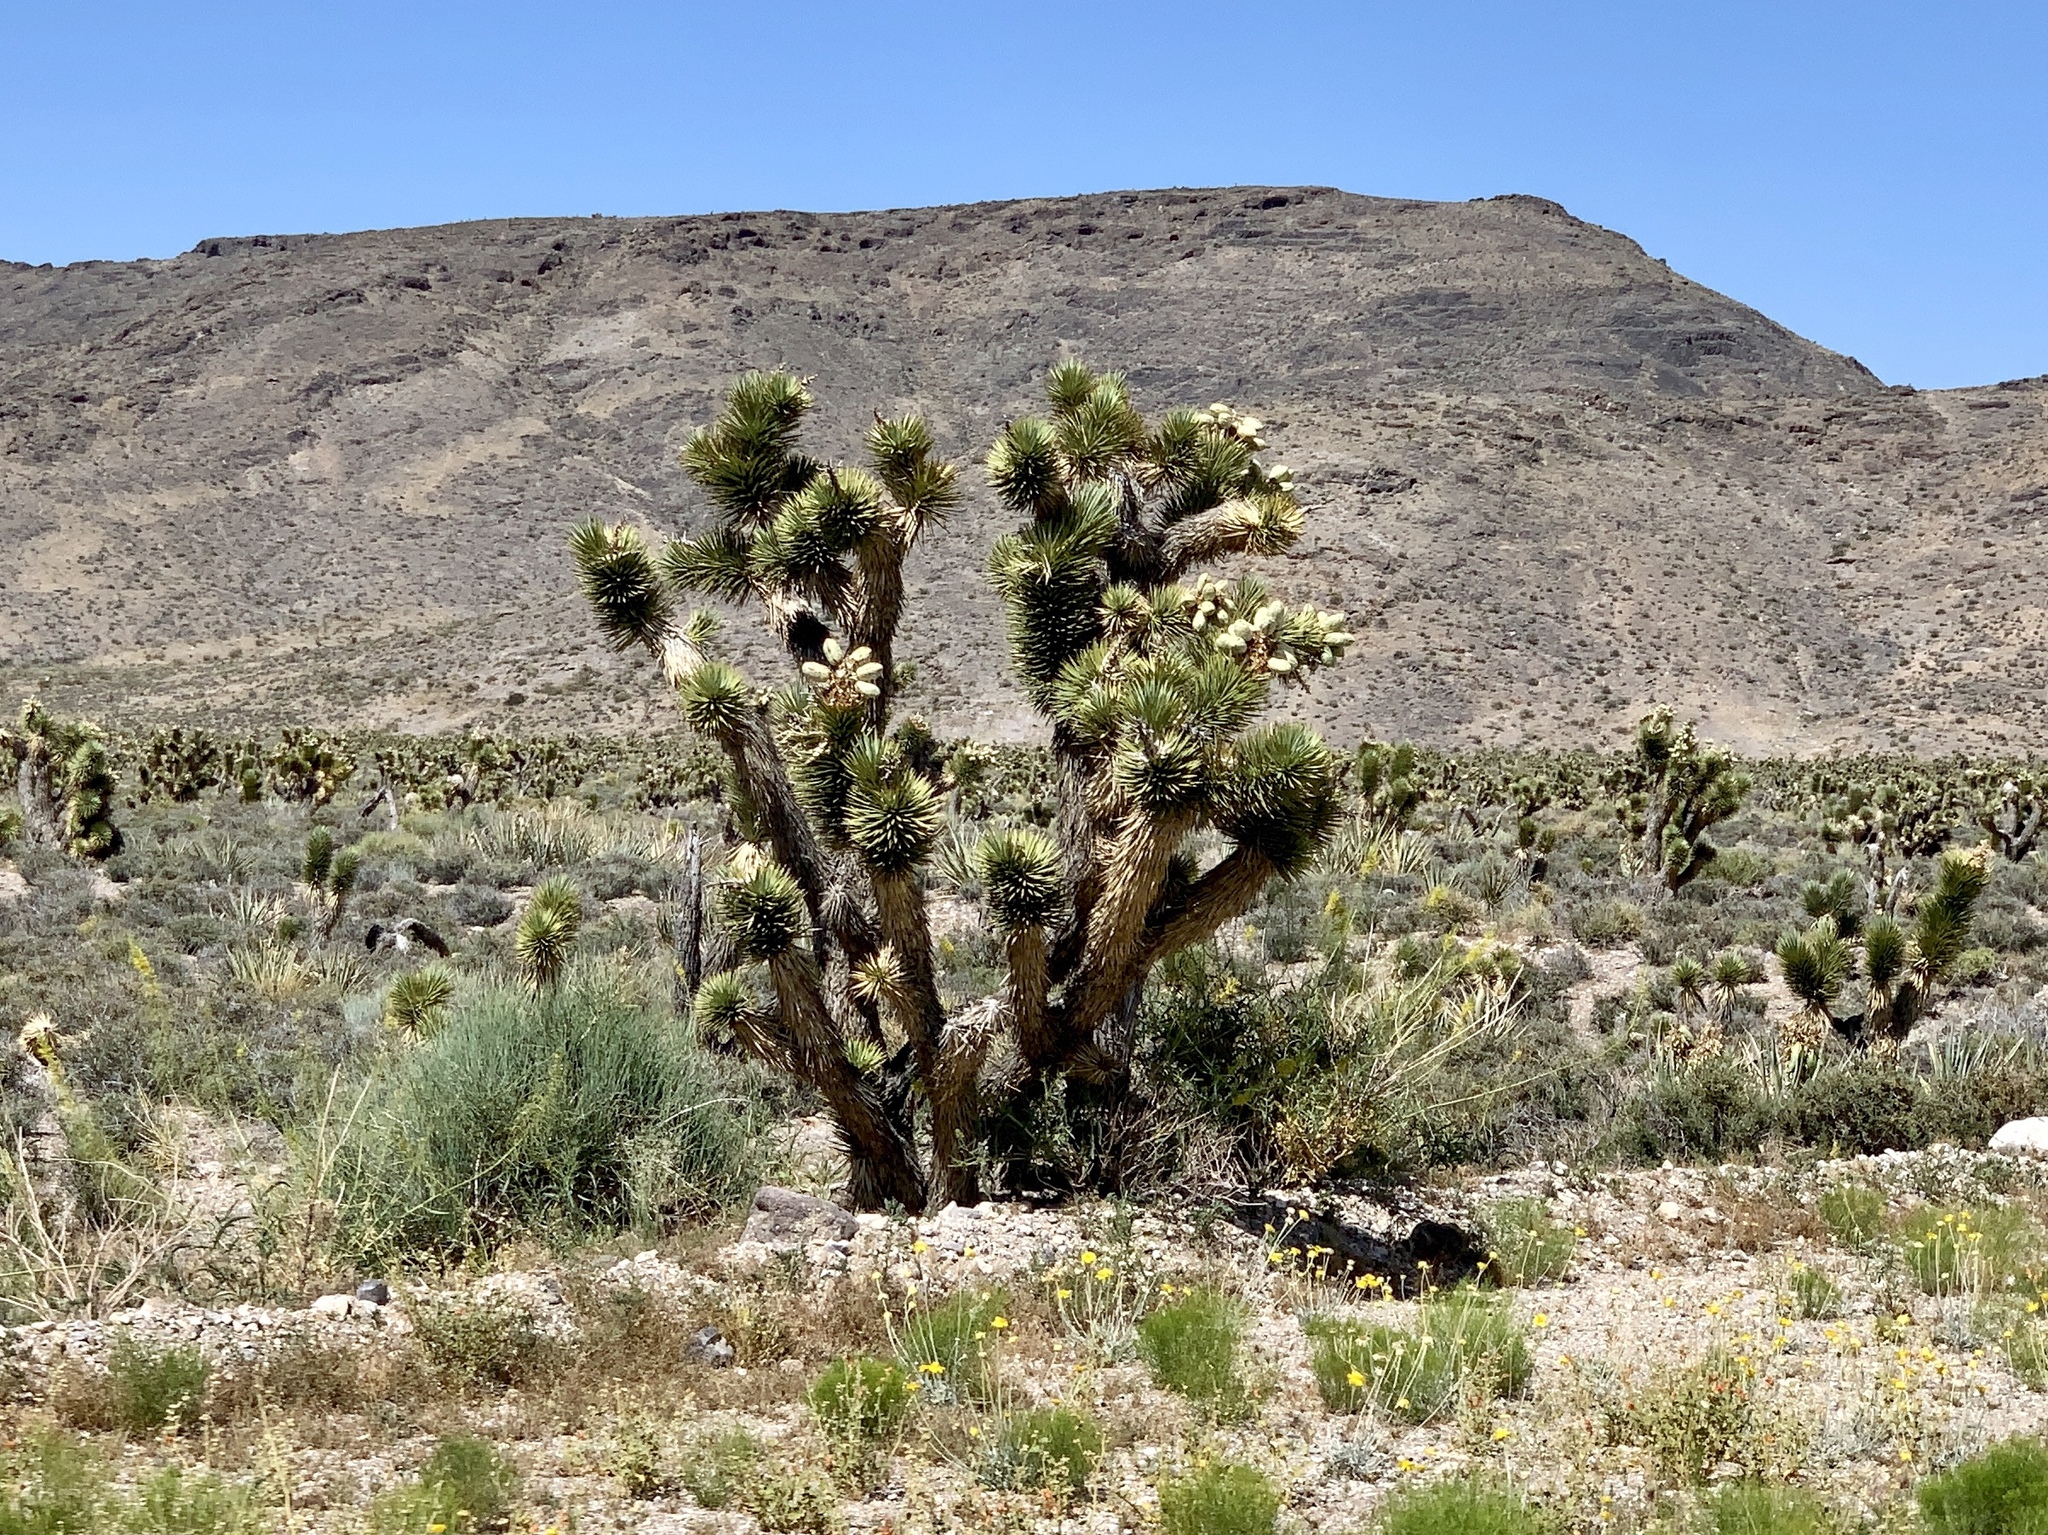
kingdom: Plantae
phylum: Tracheophyta
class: Liliopsida
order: Asparagales
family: Asparagaceae
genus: Yucca
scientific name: Yucca brevifolia
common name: Joshua tree
